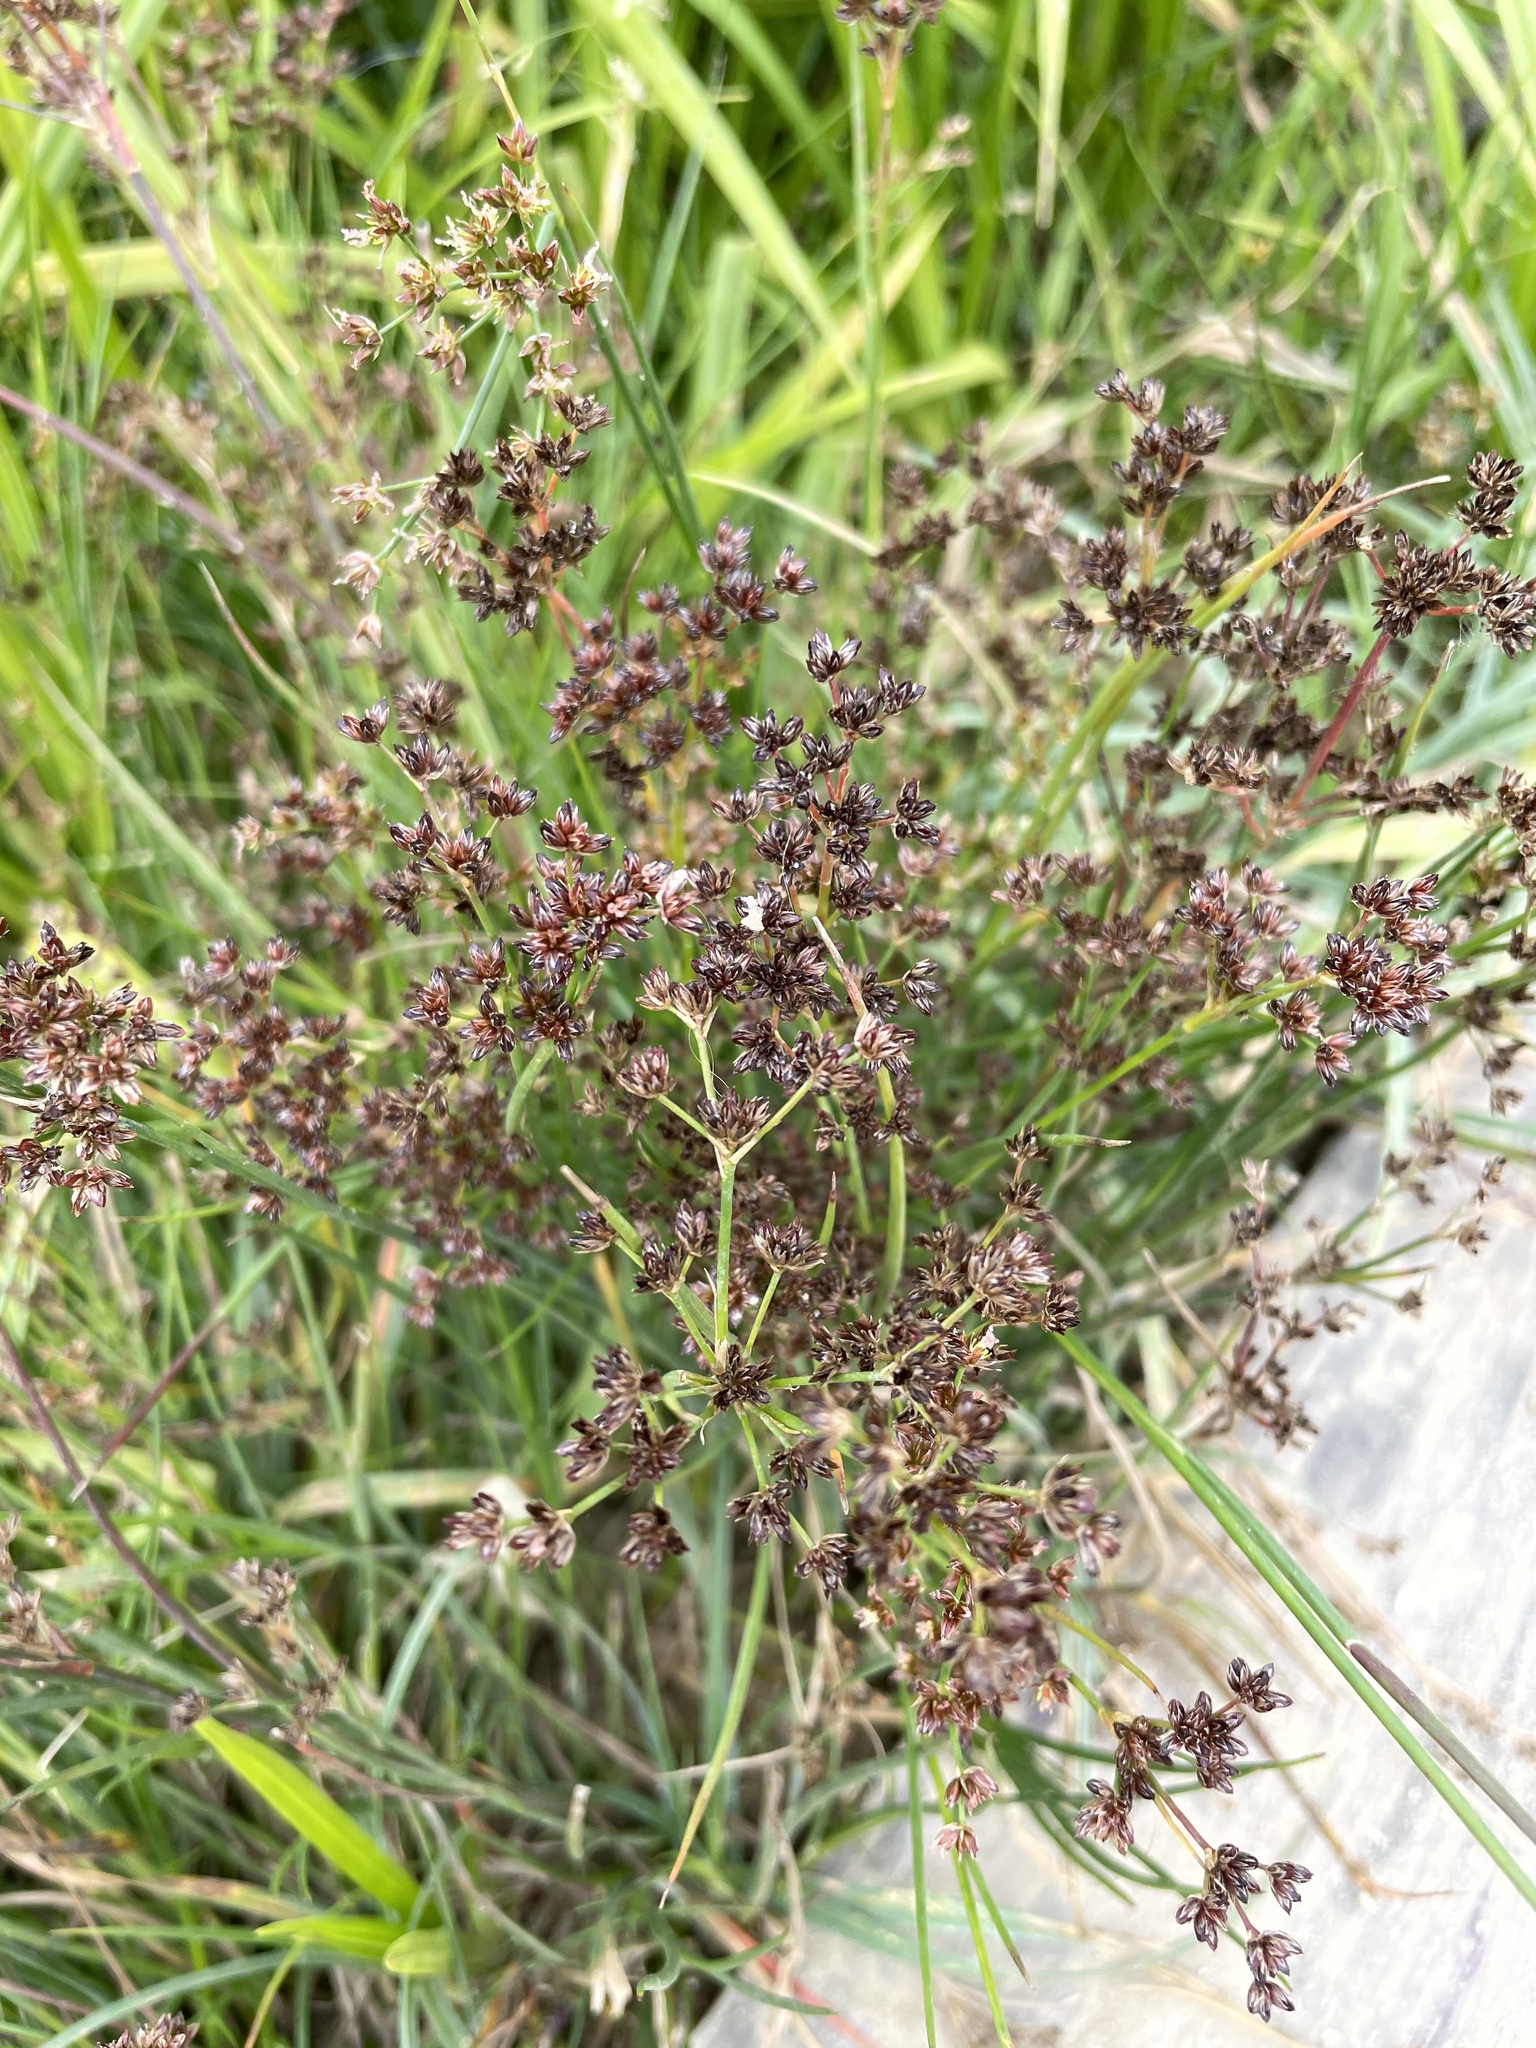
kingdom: Plantae
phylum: Tracheophyta
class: Liliopsida
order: Poales
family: Juncaceae
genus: Juncus
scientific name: Juncus articulatus
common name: Jointed rush
